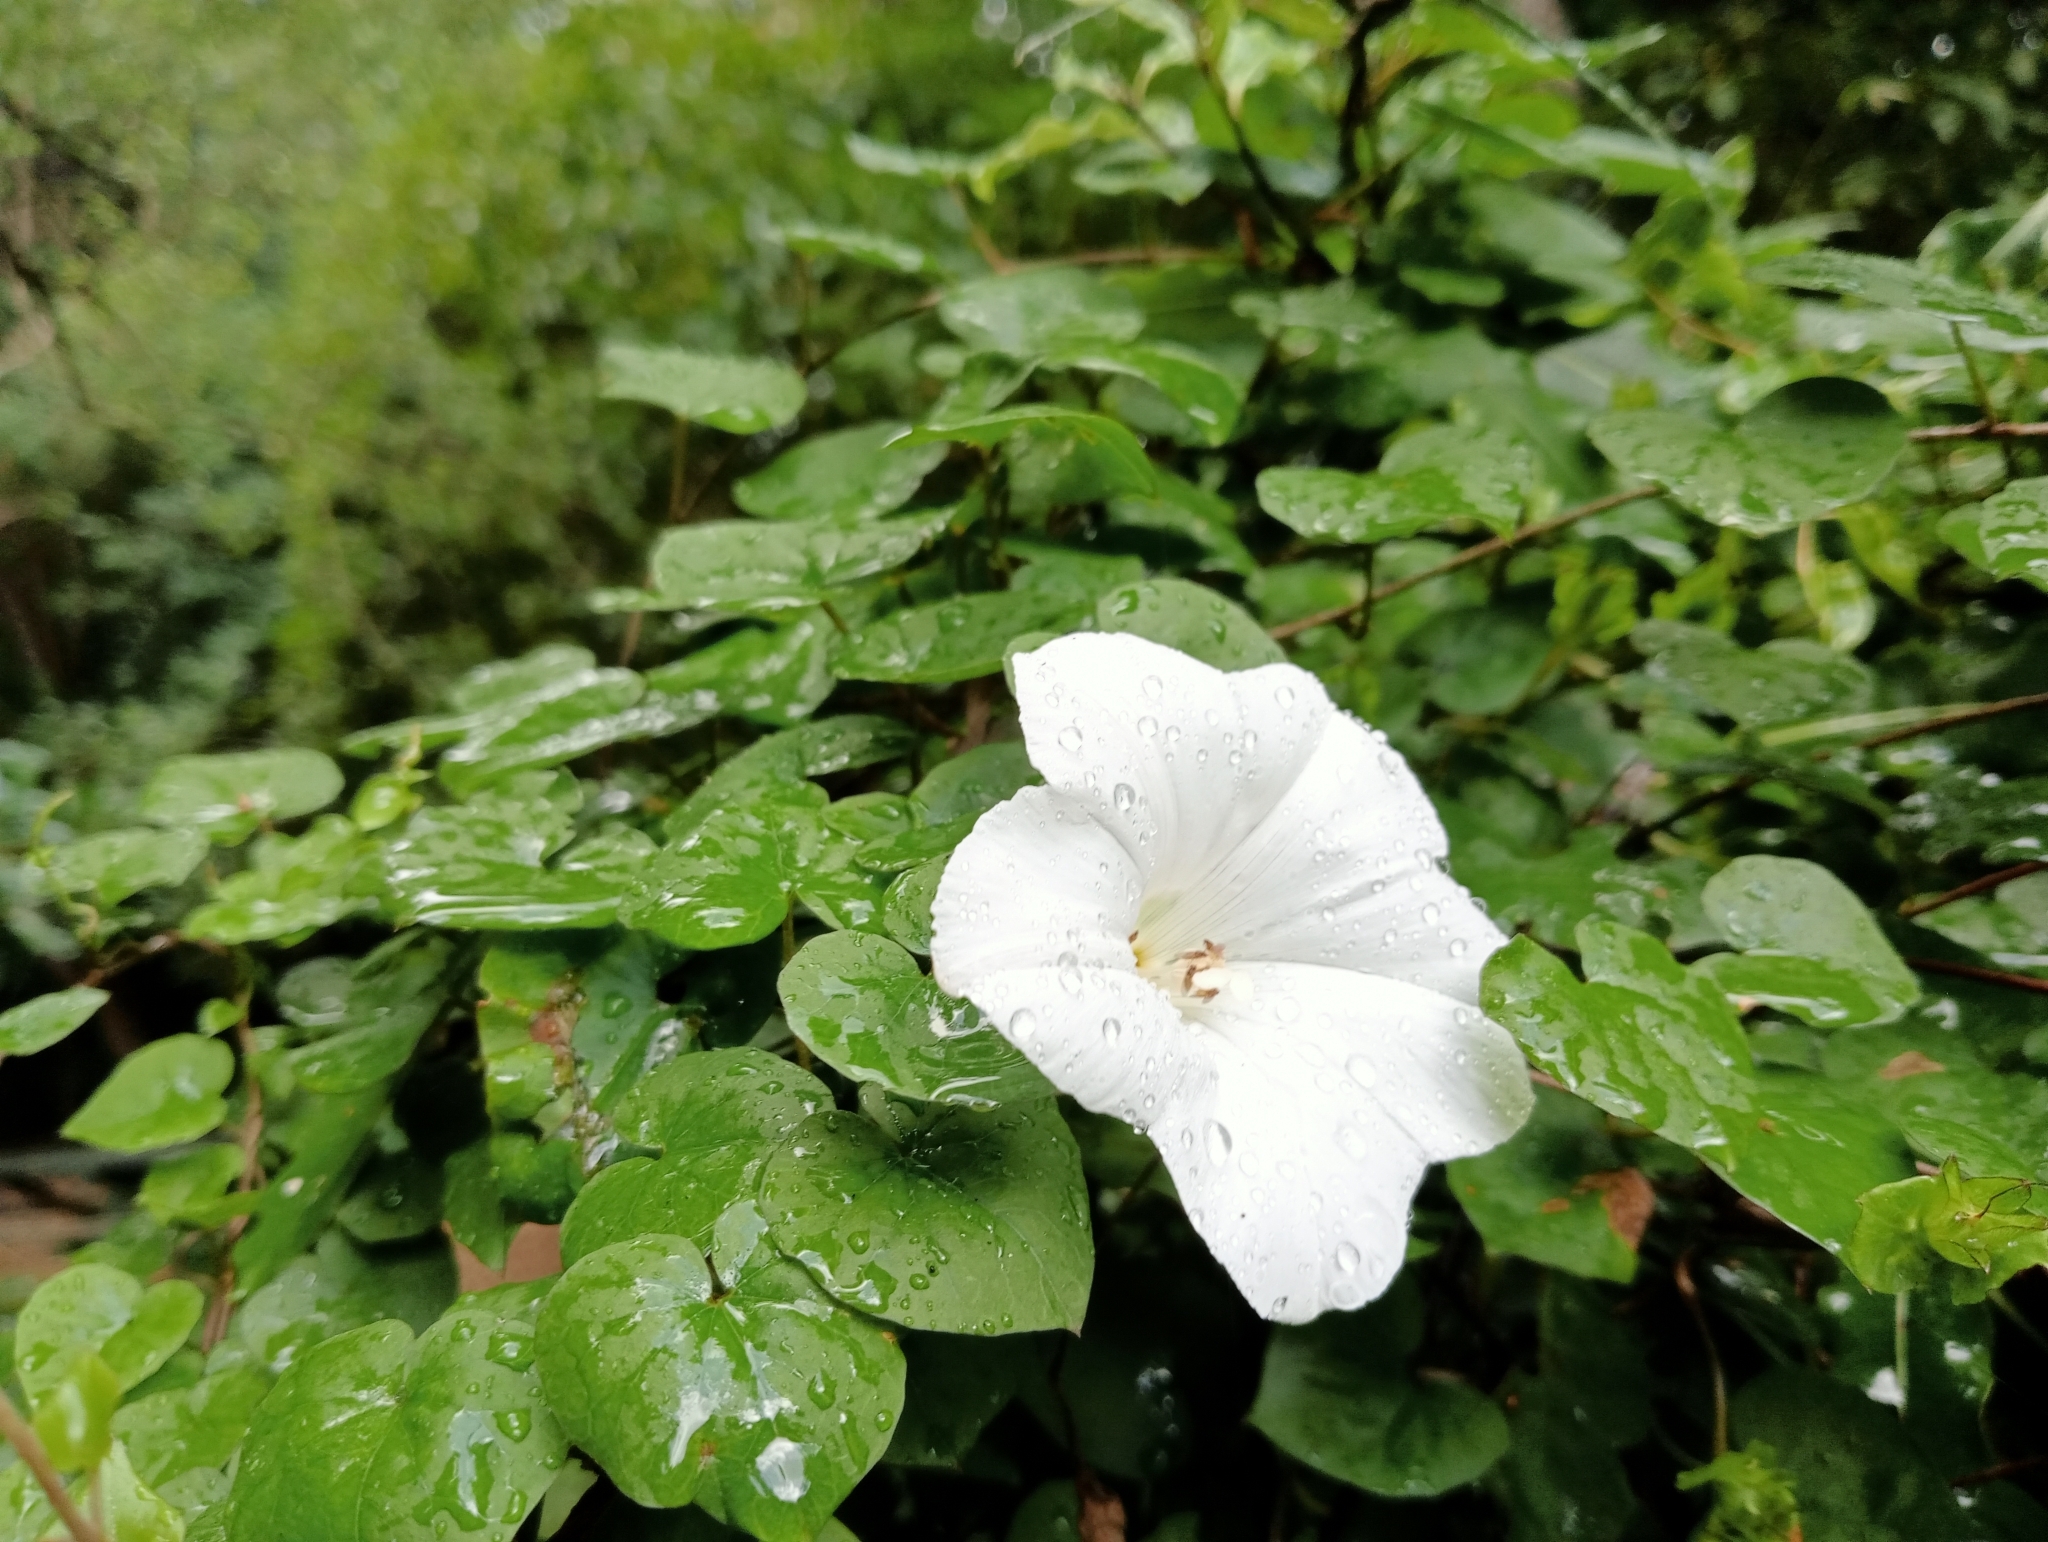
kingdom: Plantae
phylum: Tracheophyta
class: Magnoliopsida
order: Solanales
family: Convolvulaceae
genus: Calystegia
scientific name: Calystegia tuguriorum
